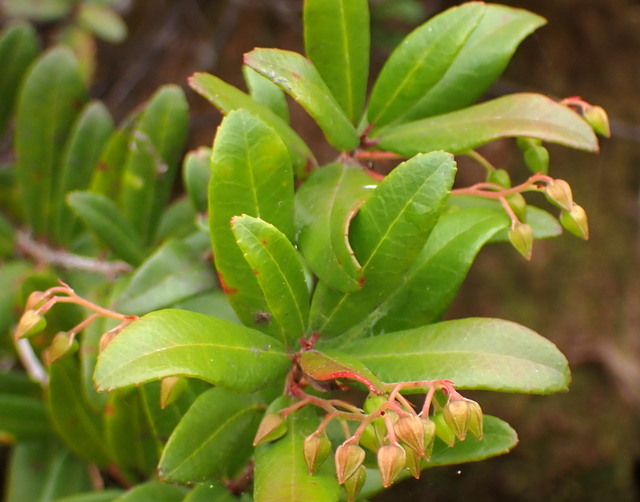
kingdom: Plantae
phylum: Tracheophyta
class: Magnoliopsida
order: Ericales
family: Ericaceae
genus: Pieris
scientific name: Pieris phillyreifolia
